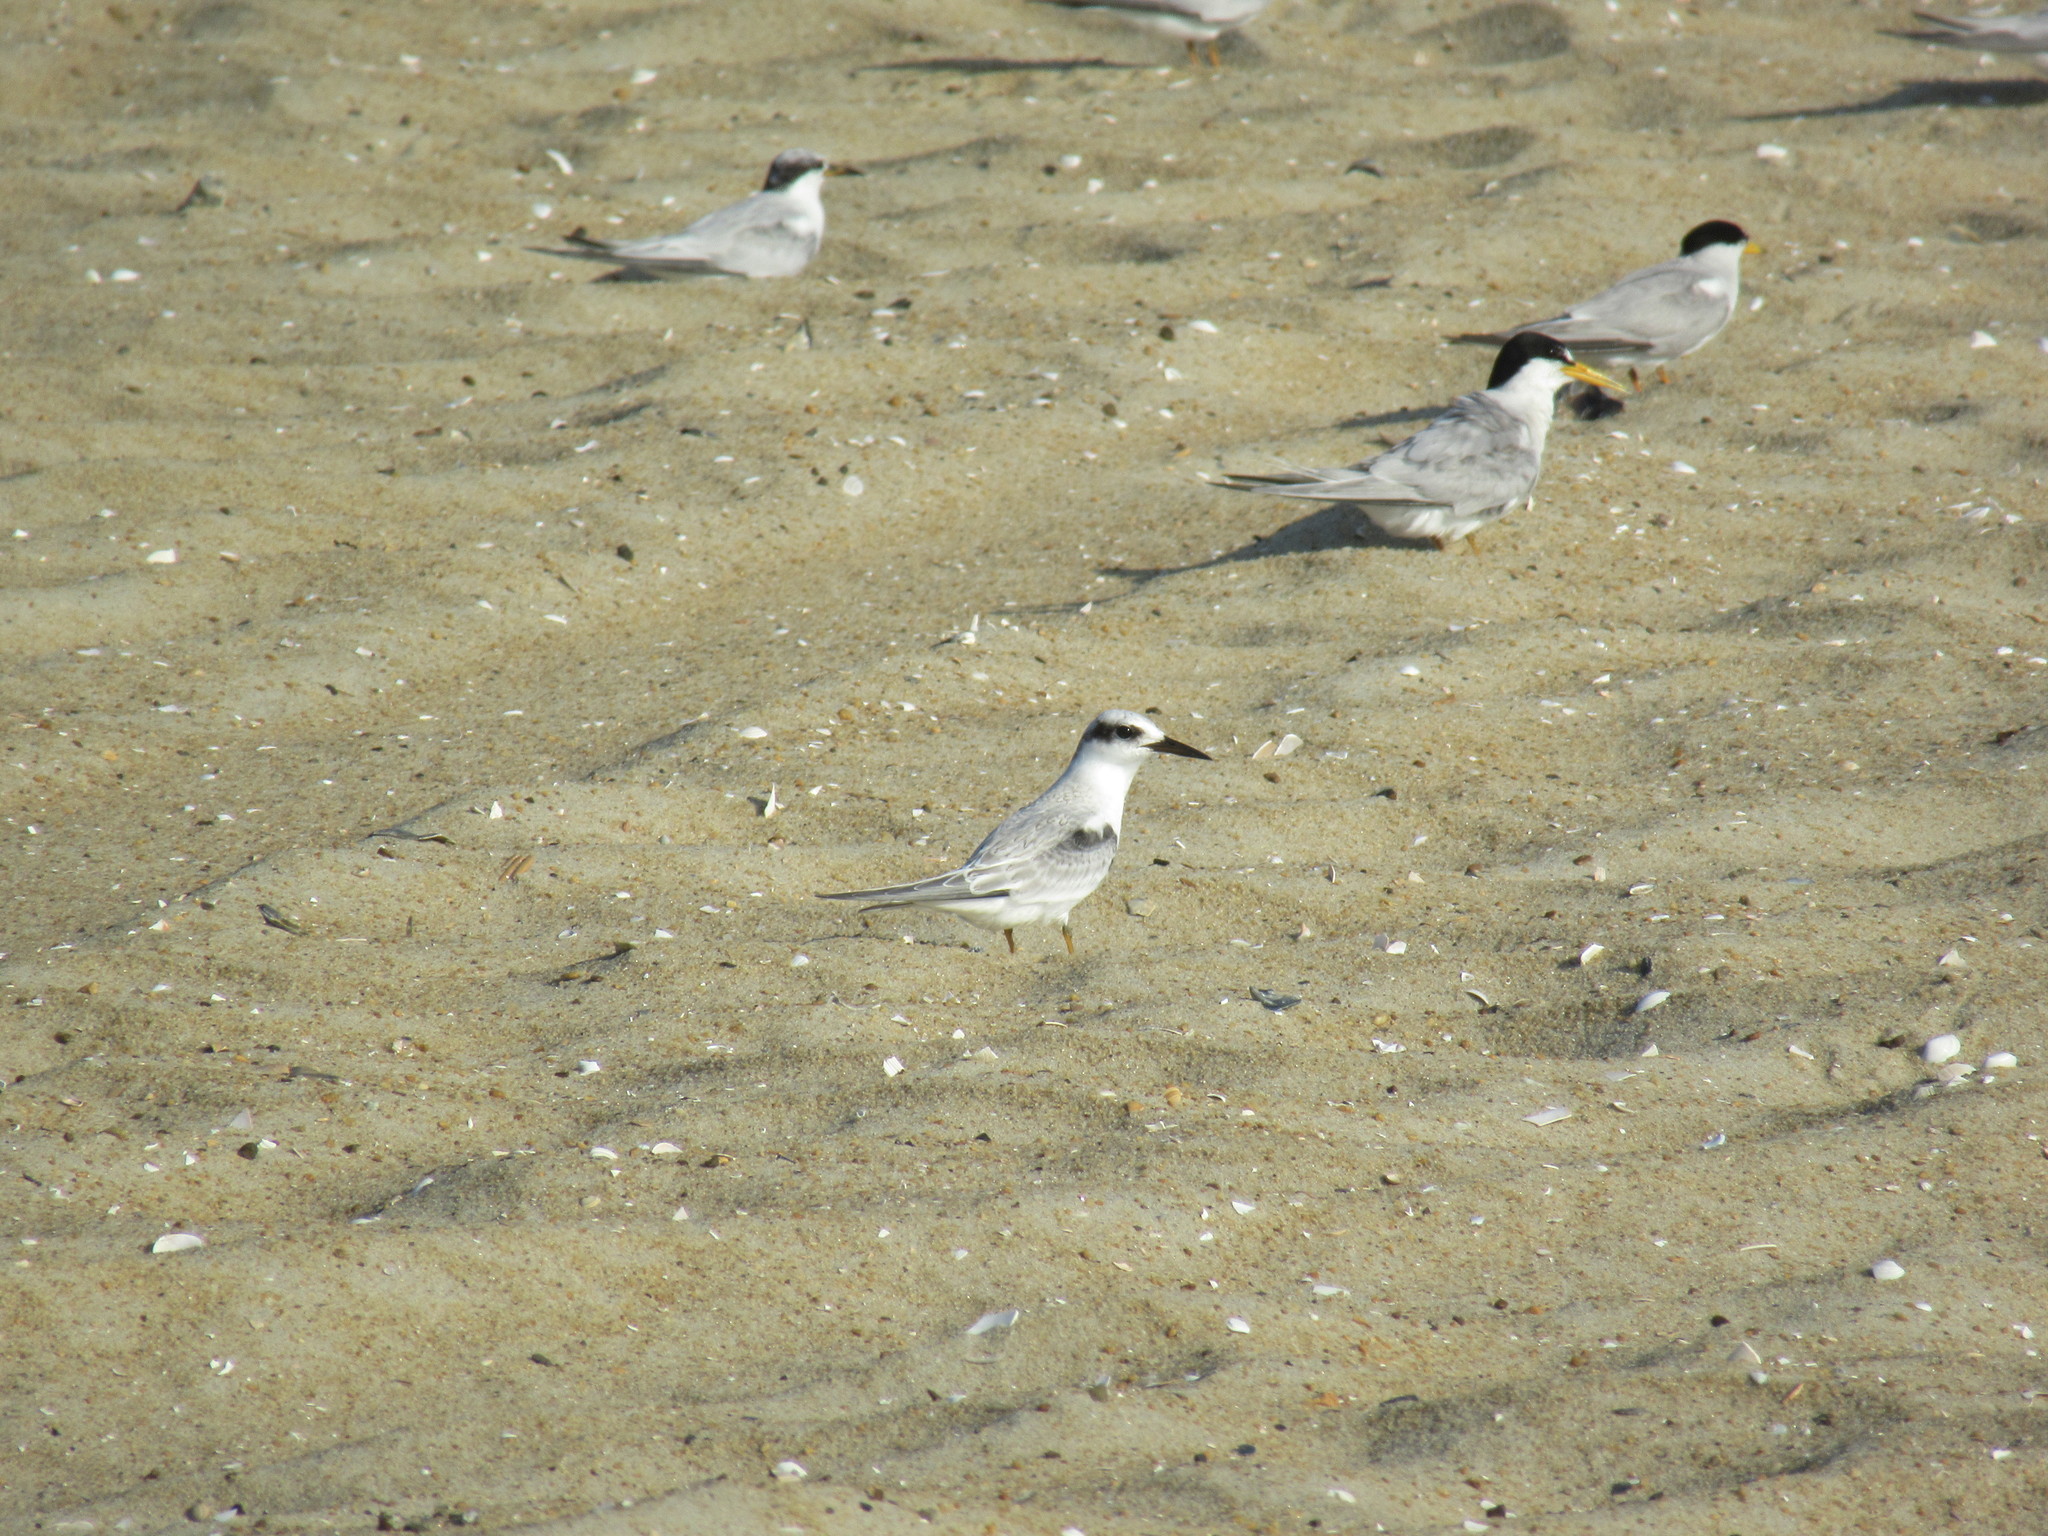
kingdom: Animalia
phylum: Chordata
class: Aves
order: Charadriiformes
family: Laridae
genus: Sternula
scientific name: Sternula antillarum
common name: Least tern
